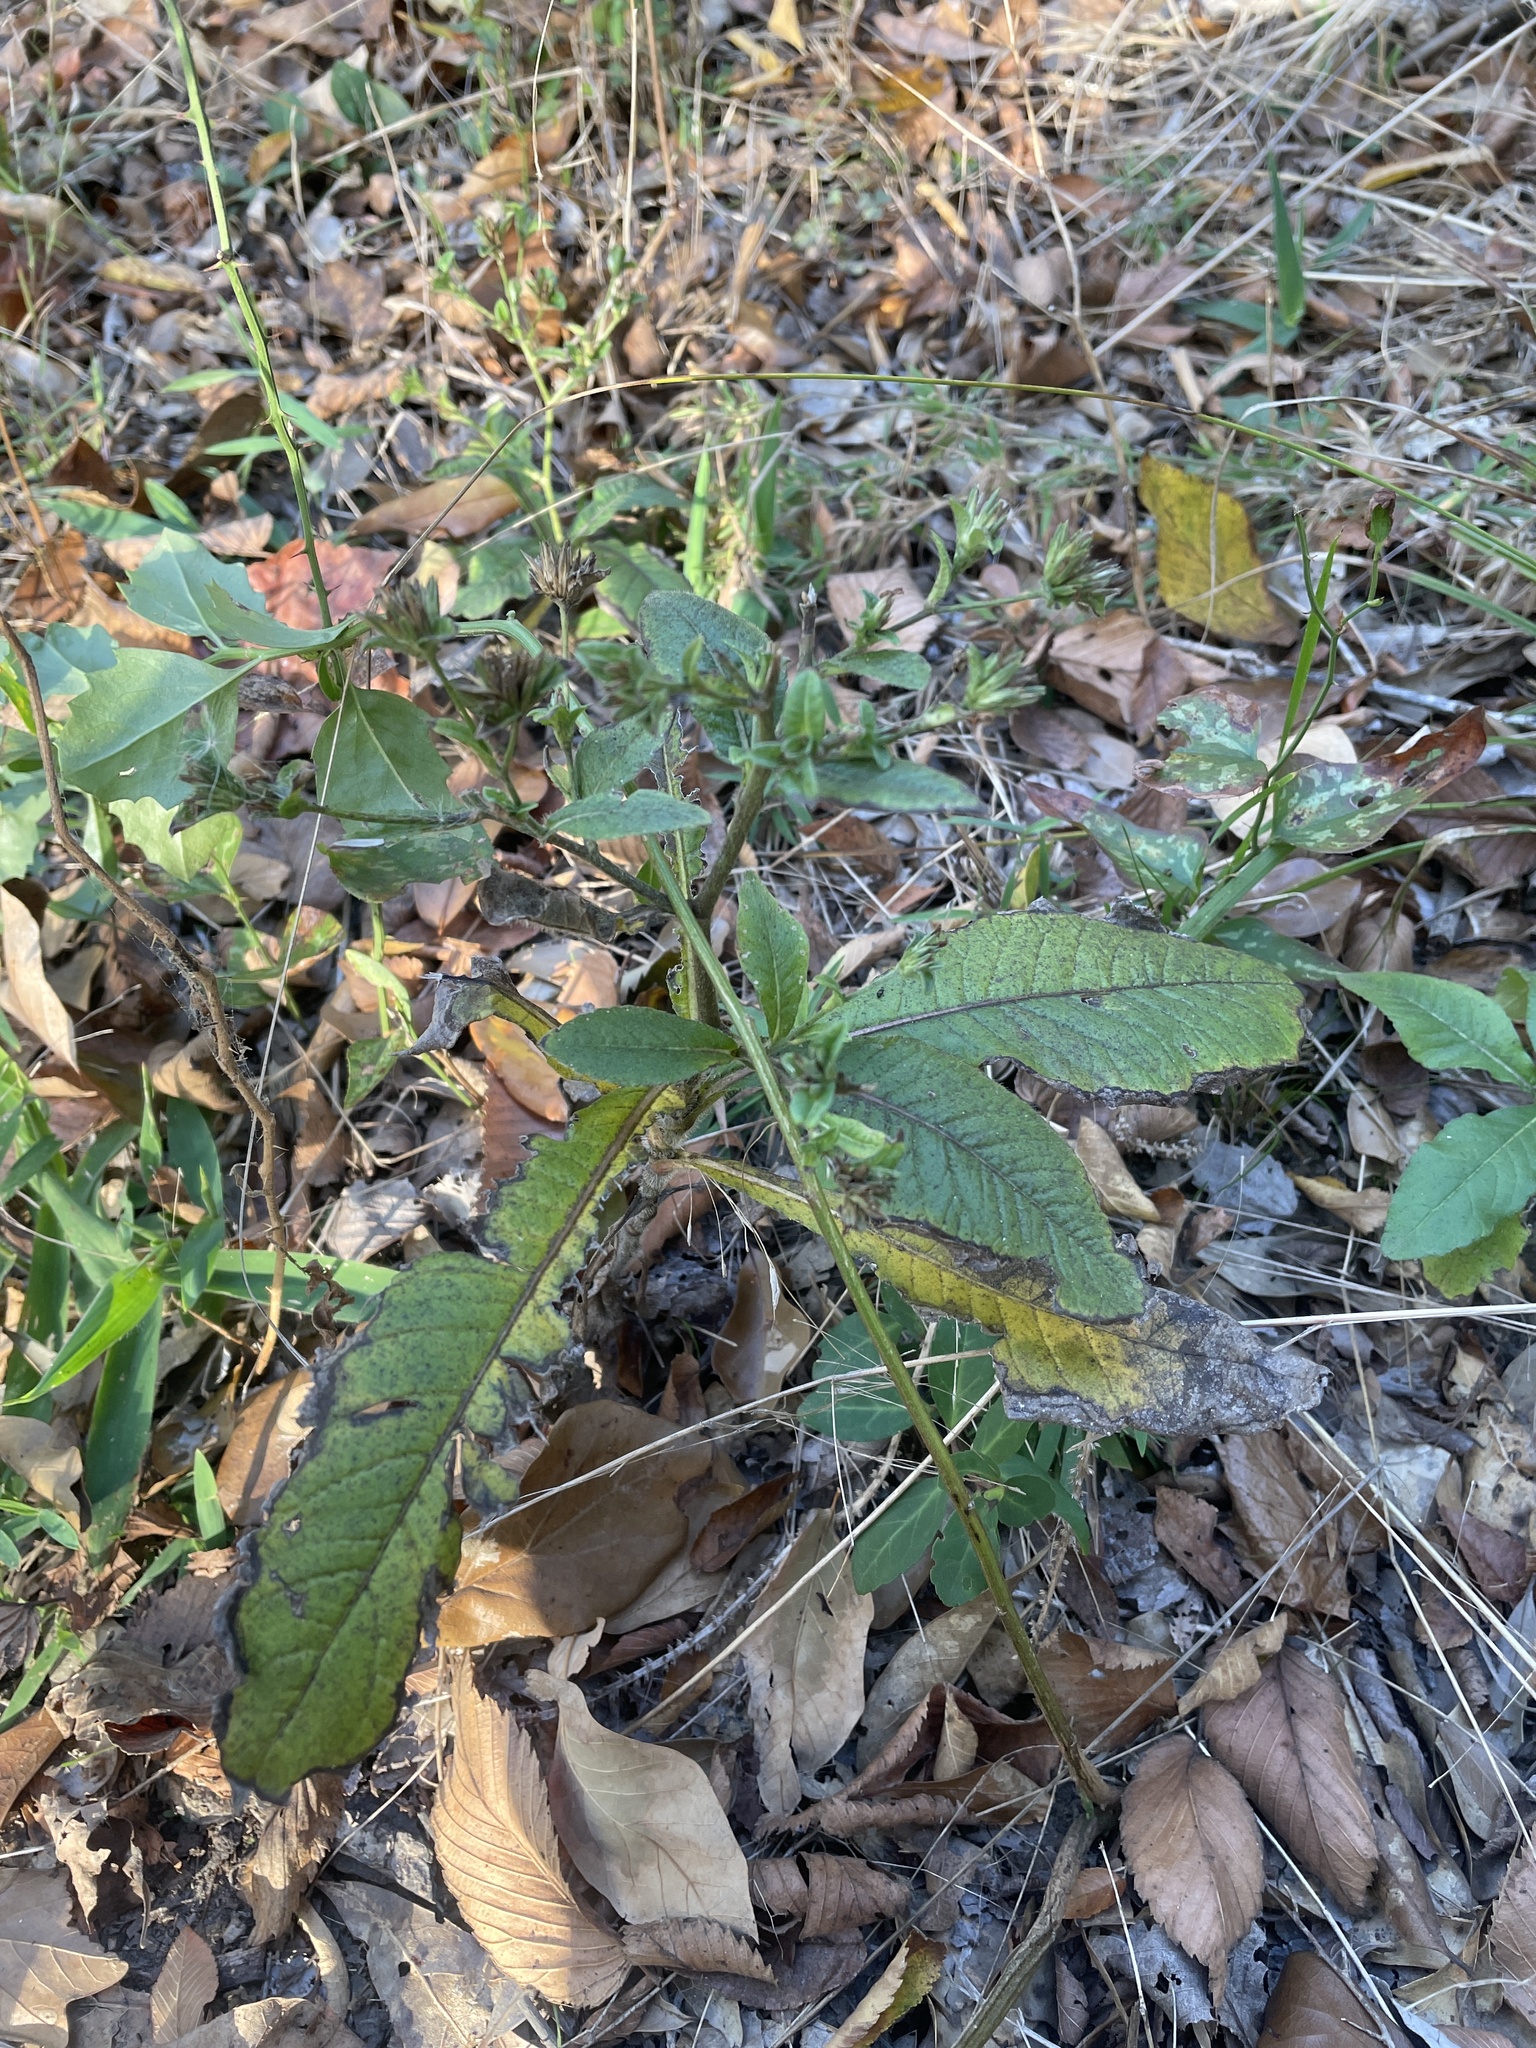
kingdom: Plantae
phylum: Tracheophyta
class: Magnoliopsida
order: Asterales
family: Asteraceae
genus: Elephantopus
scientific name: Elephantopus carolinianus
